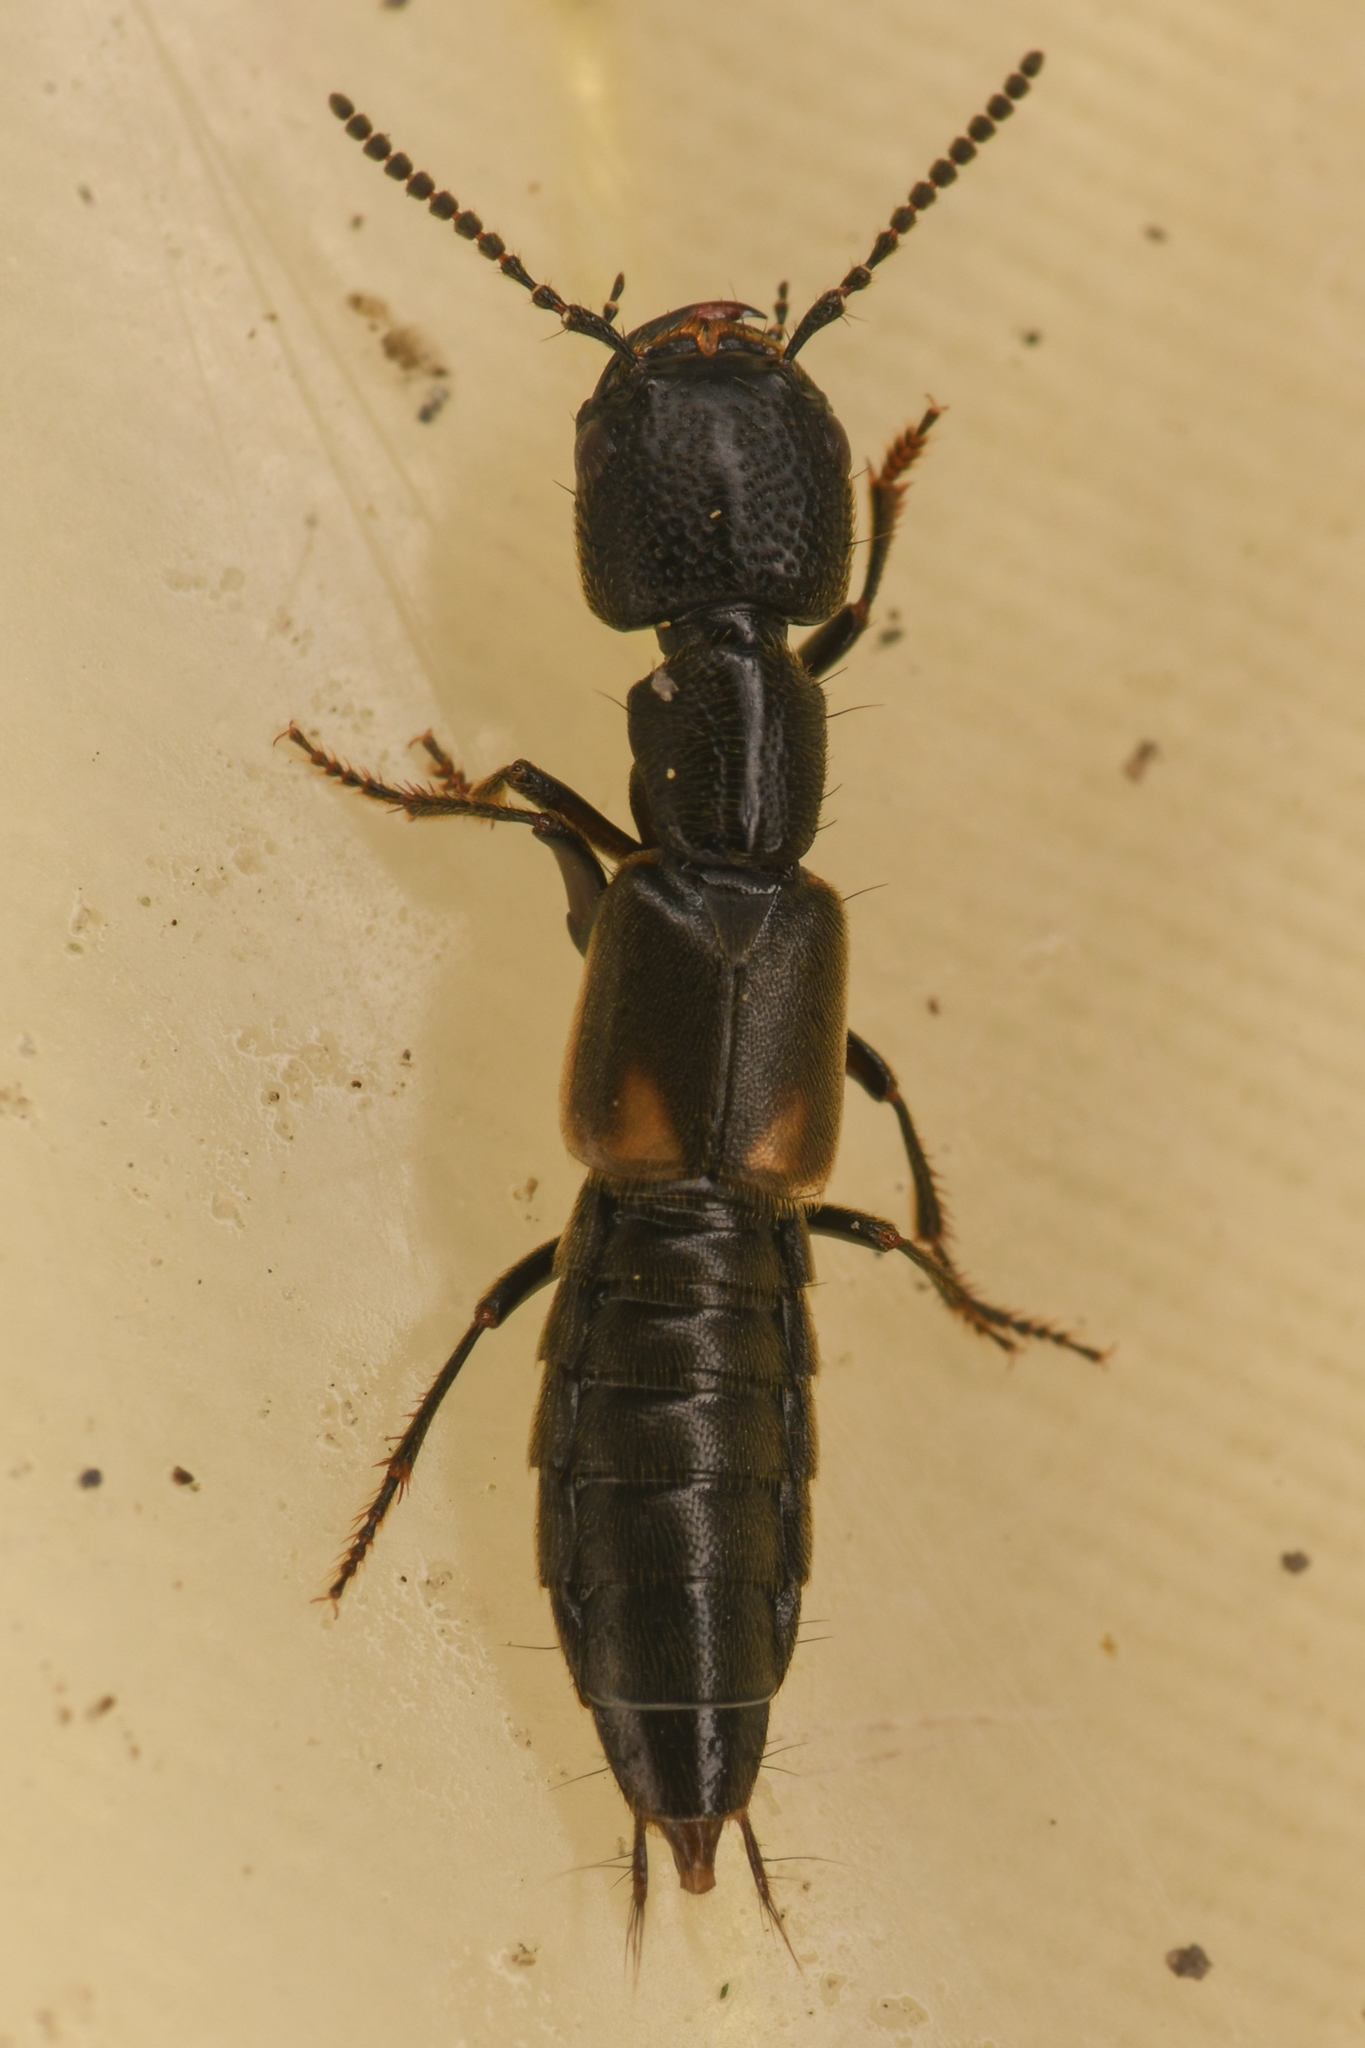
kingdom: Animalia
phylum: Arthropoda
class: Insecta
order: Coleoptera
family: Staphylinidae
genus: Cafius
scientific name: Cafius lithocharinus
